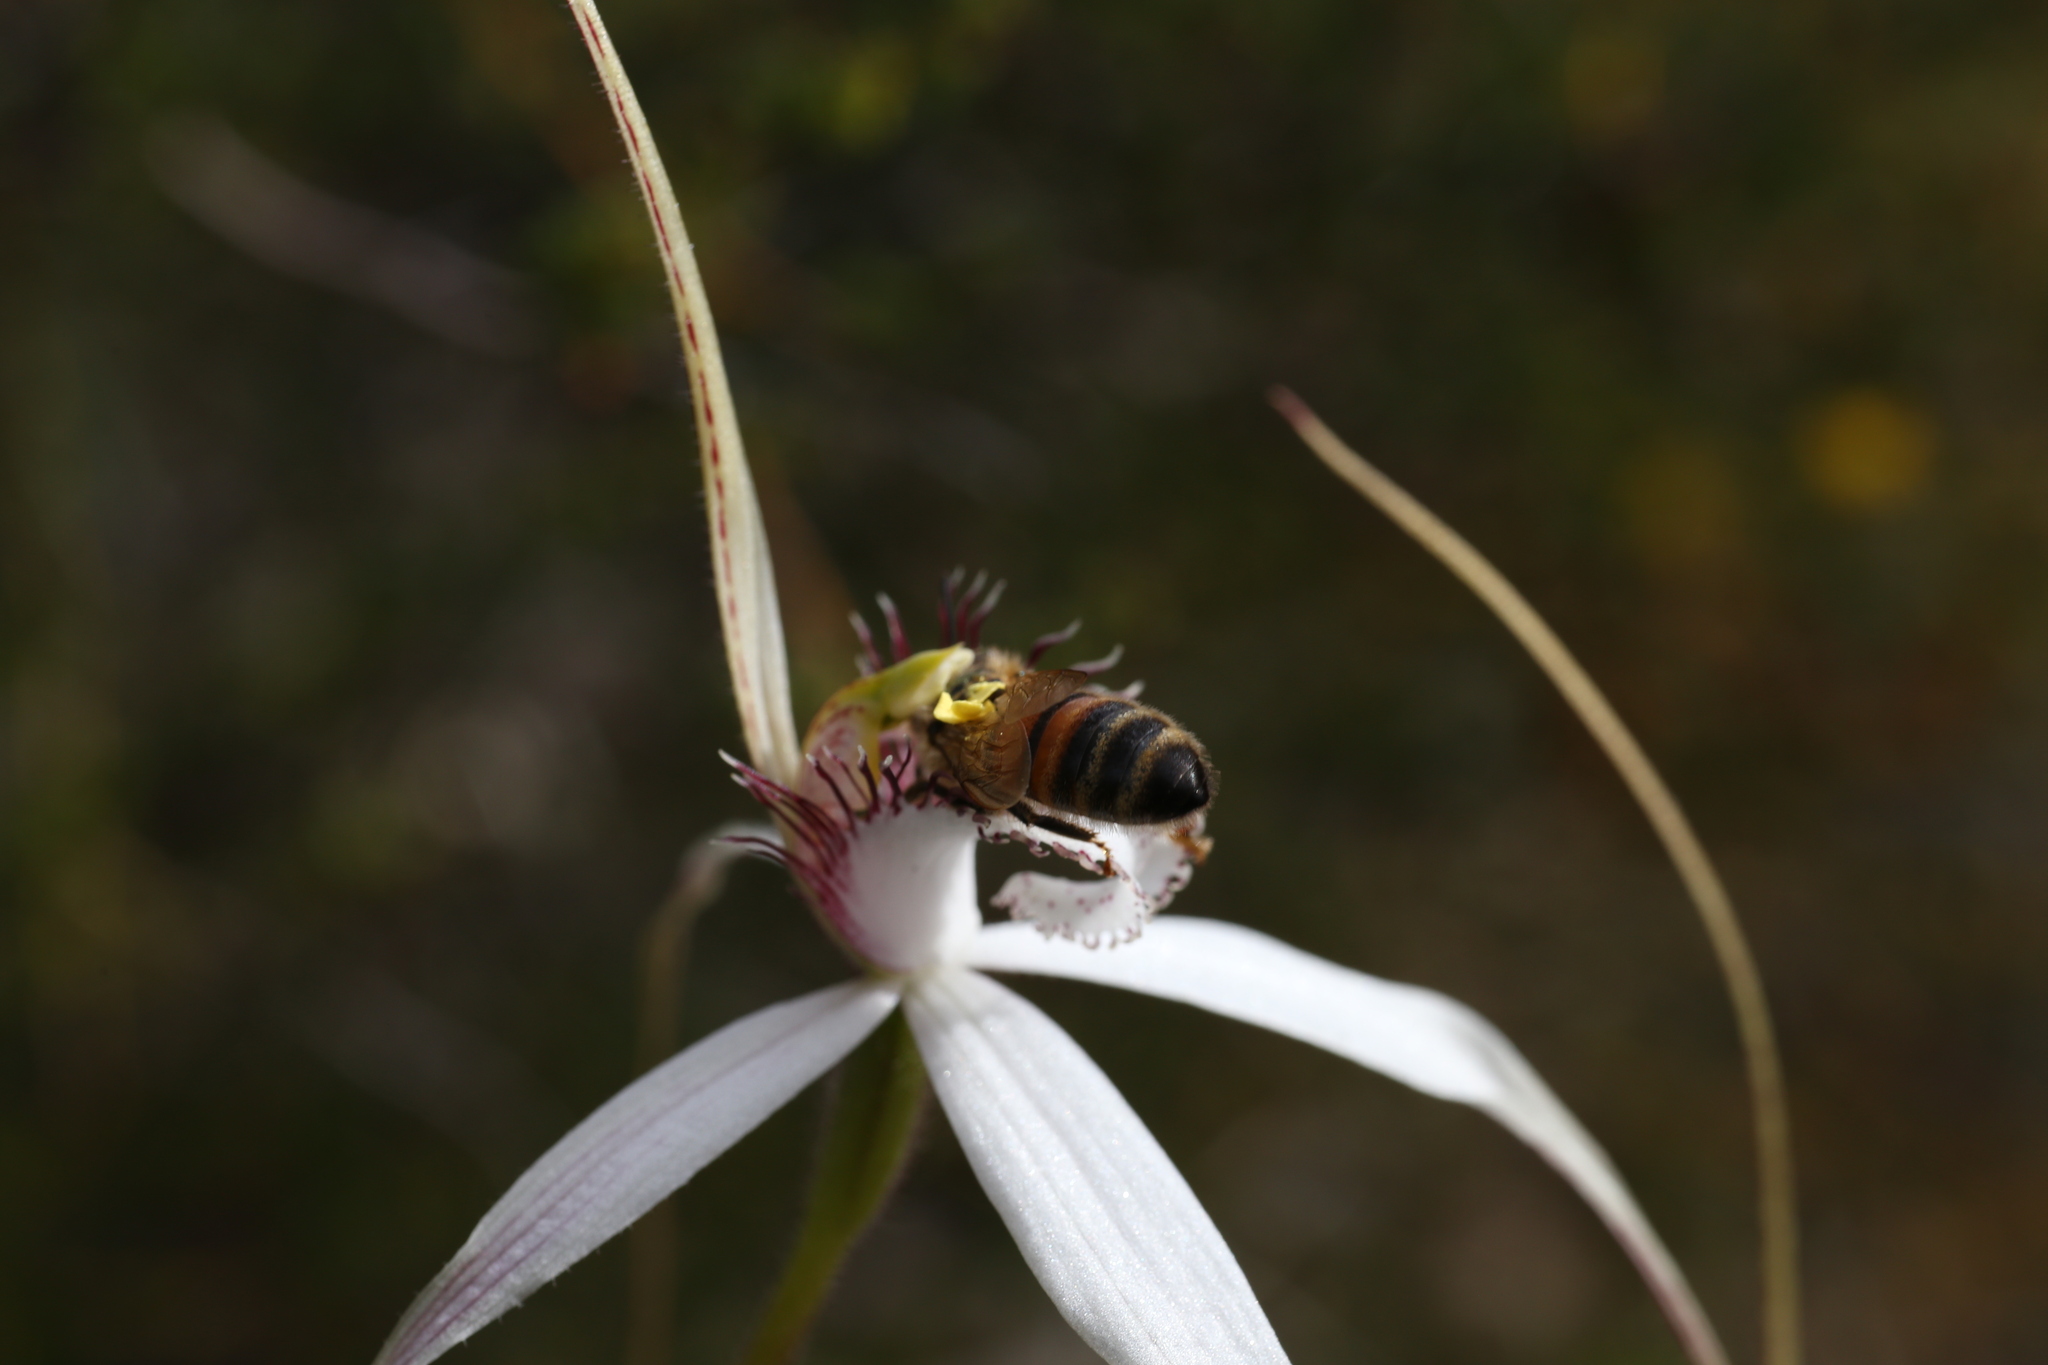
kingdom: Plantae
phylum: Tracheophyta
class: Liliopsida
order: Asparagales
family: Orchidaceae
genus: Caladenia
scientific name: Caladenia longicauda
